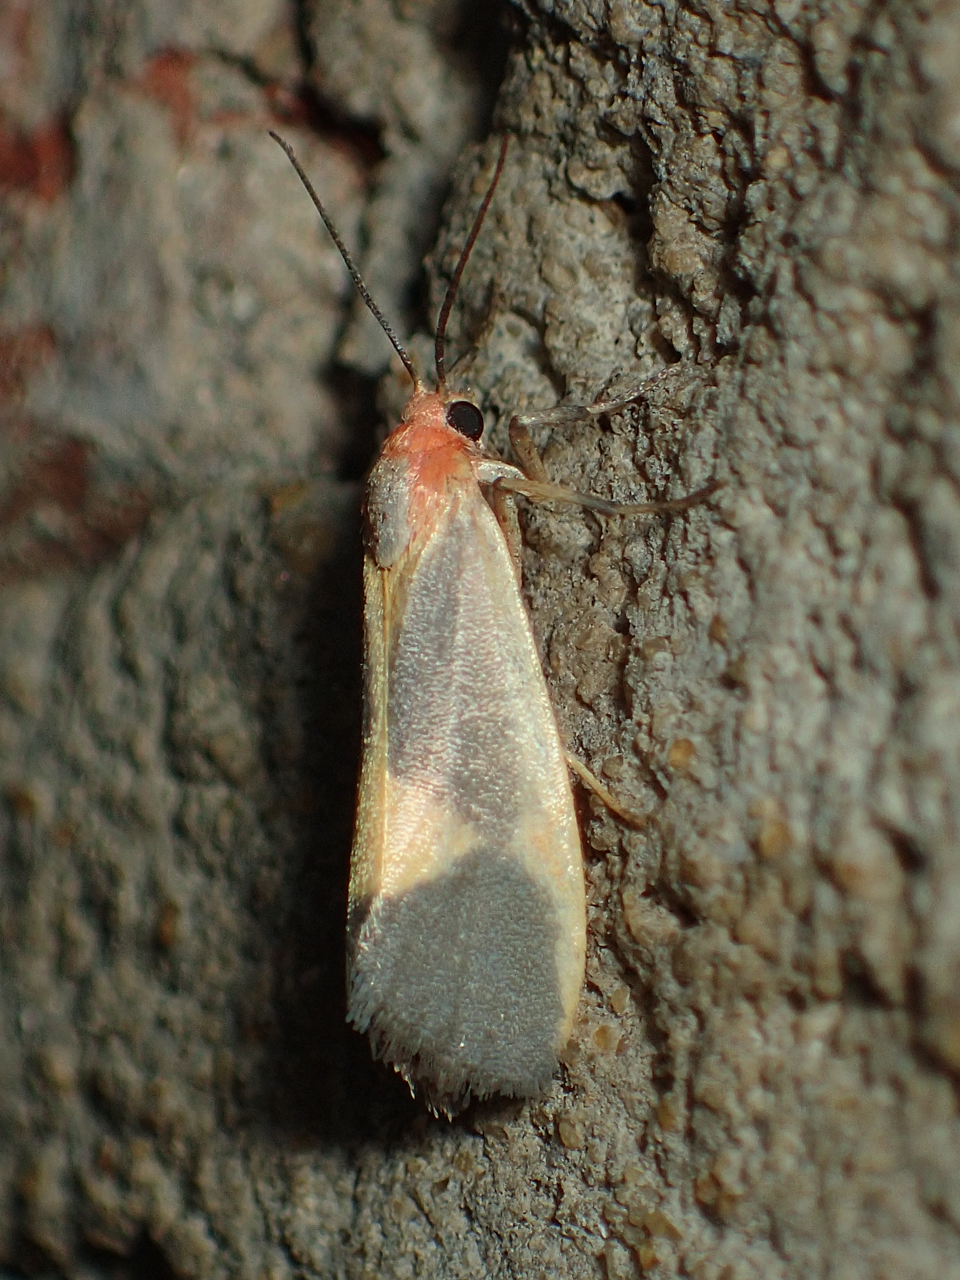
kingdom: Animalia
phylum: Arthropoda
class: Insecta
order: Lepidoptera
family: Erebidae
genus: Cisthene
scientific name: Cisthene plumbea
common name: Lead colored lichen moth
